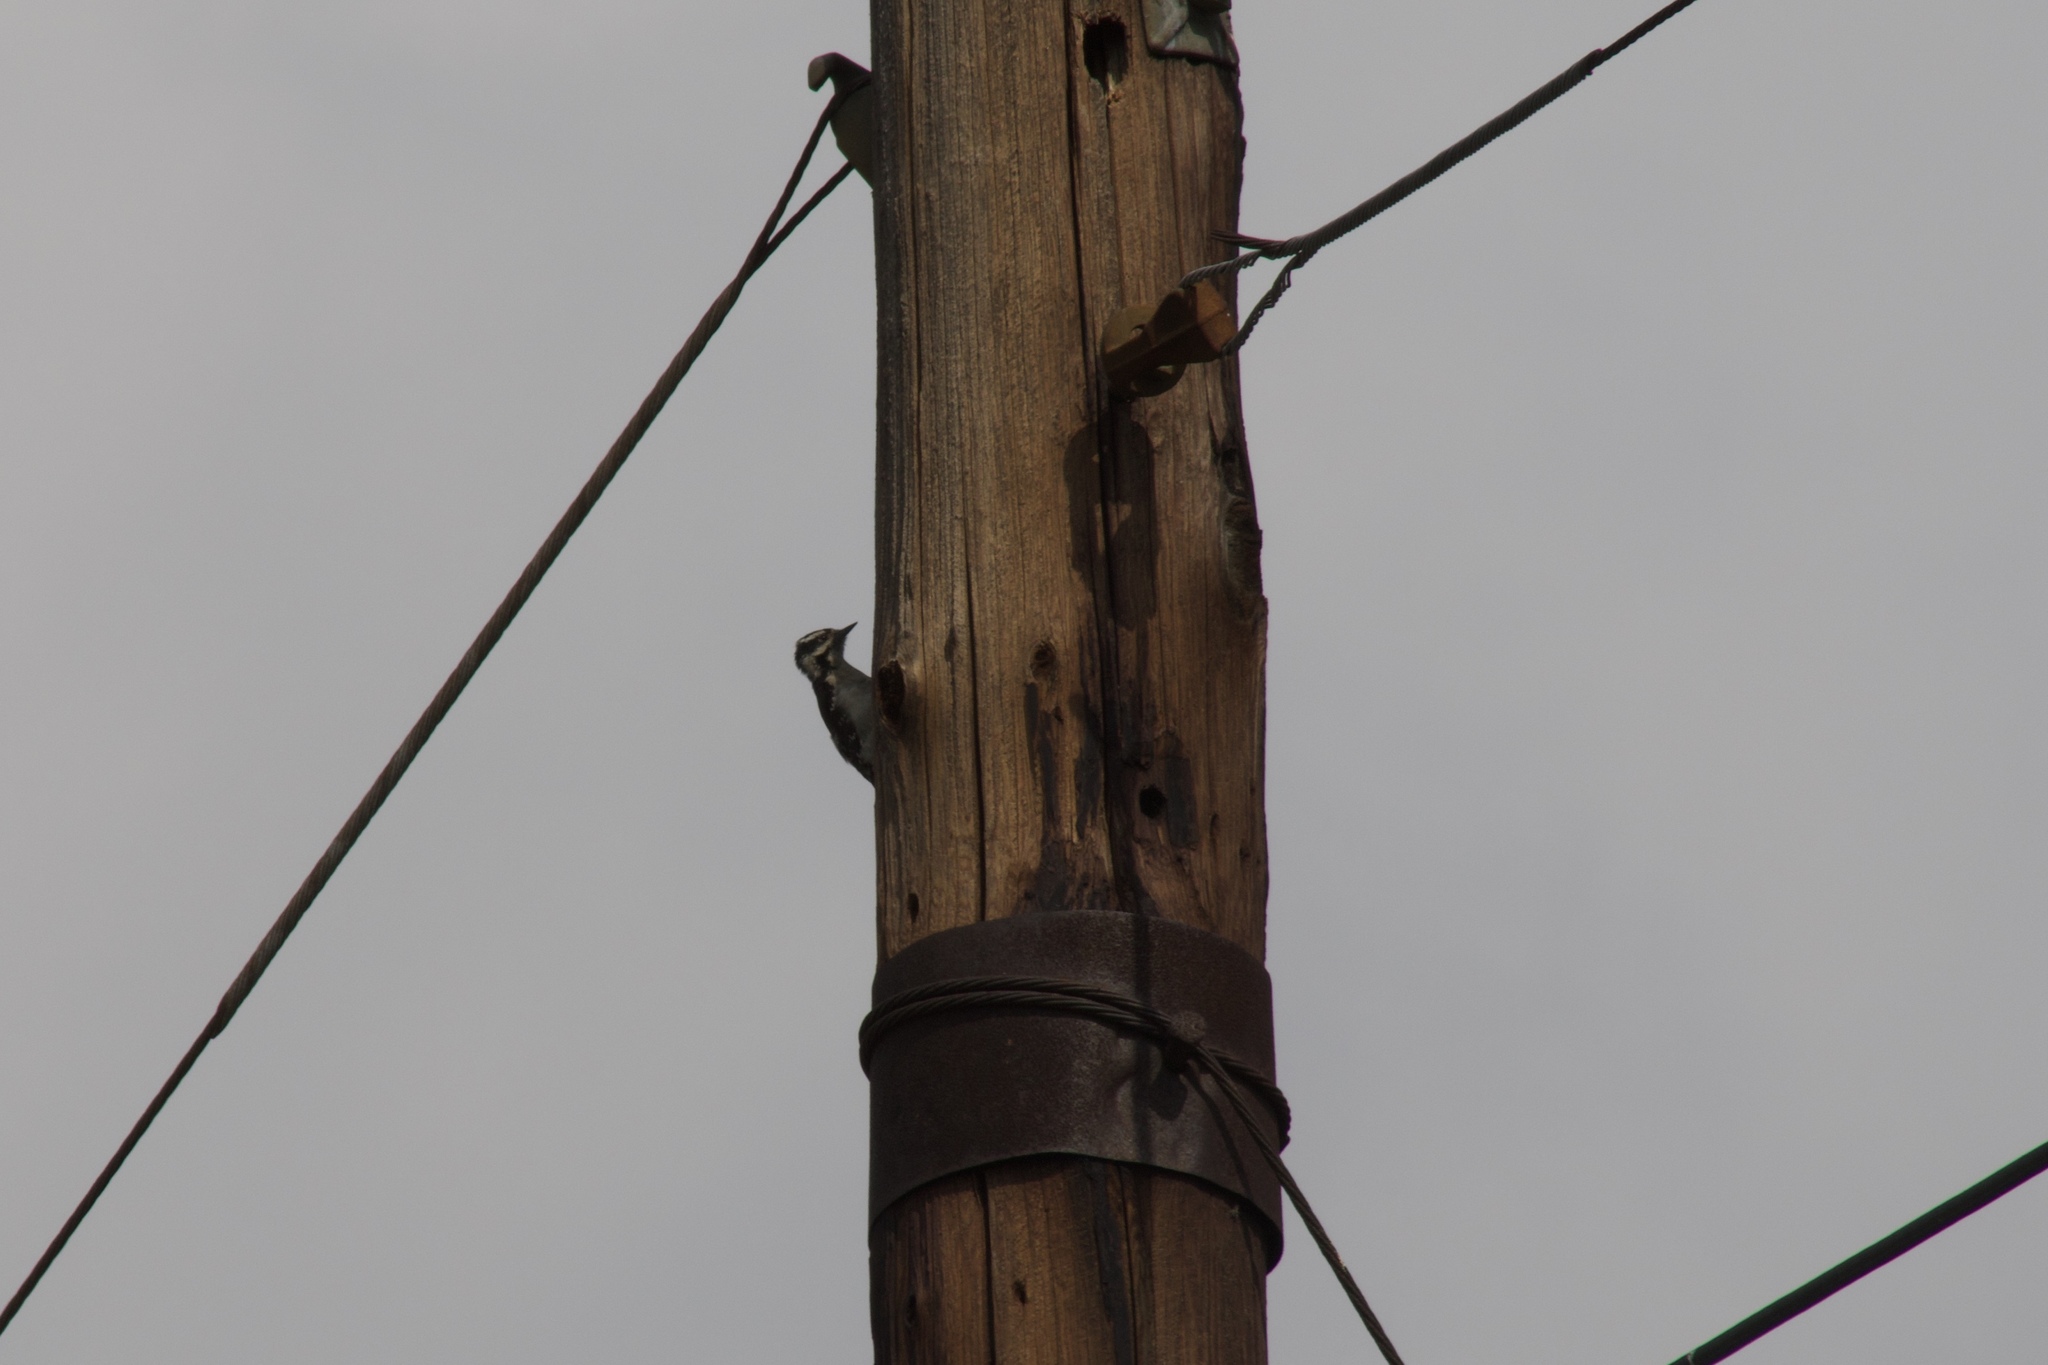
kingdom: Animalia
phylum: Chordata
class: Aves
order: Piciformes
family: Picidae
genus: Dryobates
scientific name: Dryobates pubescens
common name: Downy woodpecker
